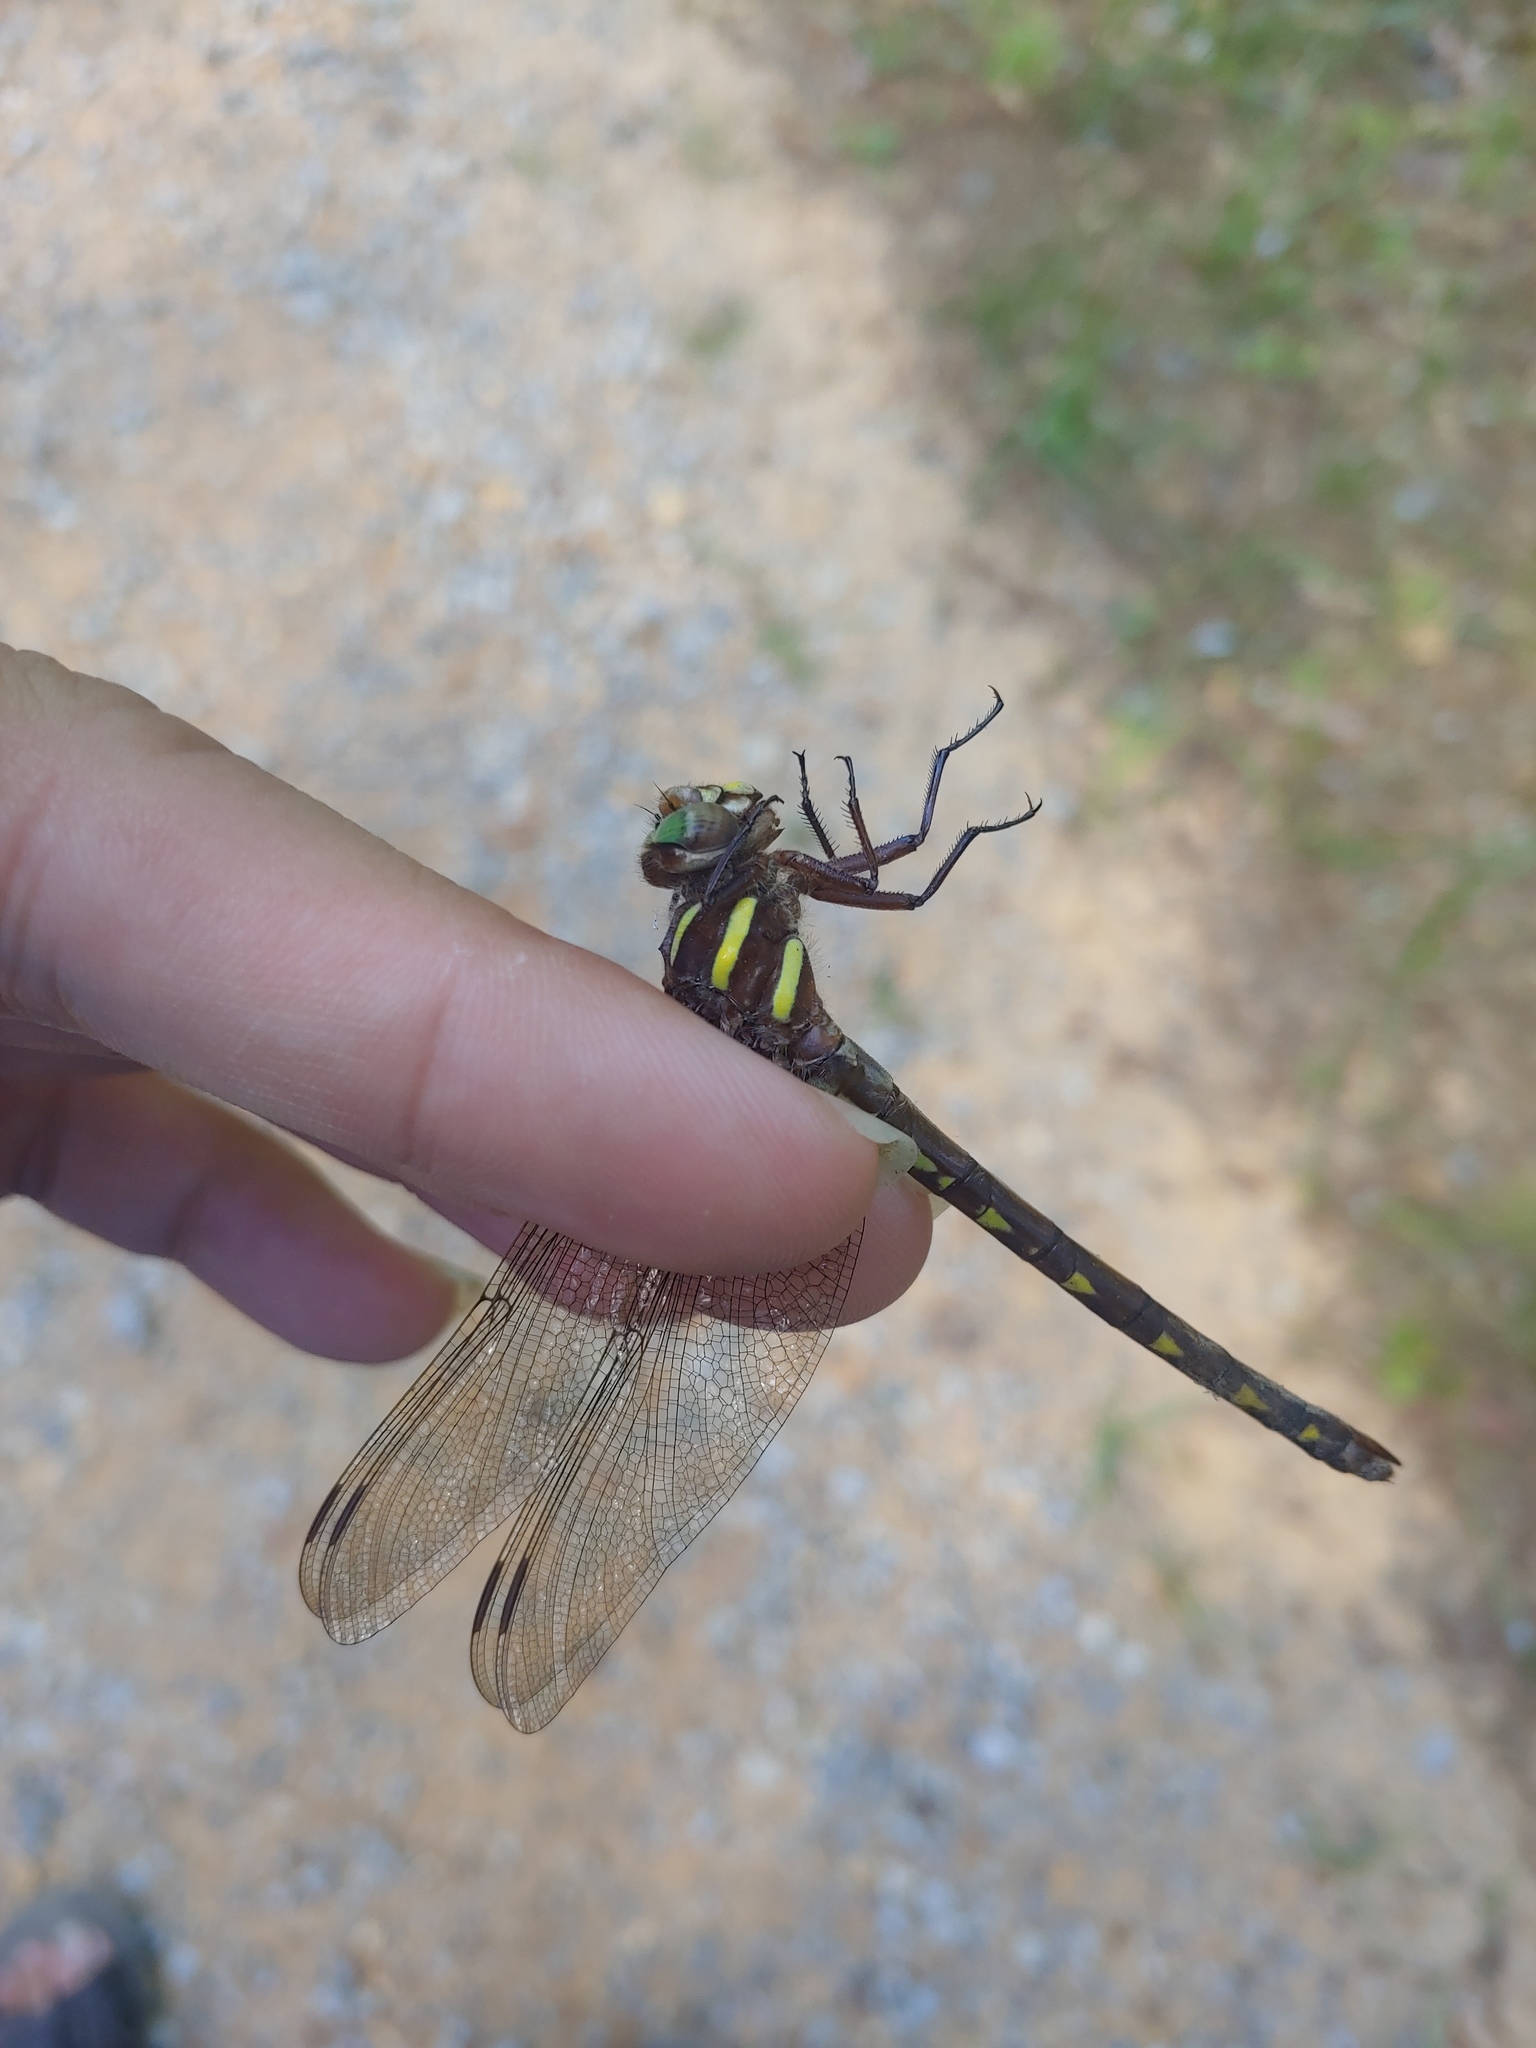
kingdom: Animalia
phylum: Arthropoda
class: Insecta
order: Odonata
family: Cordulegastridae
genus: Cordulegaster
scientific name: Cordulegaster bilineata
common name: Brown spiketail
